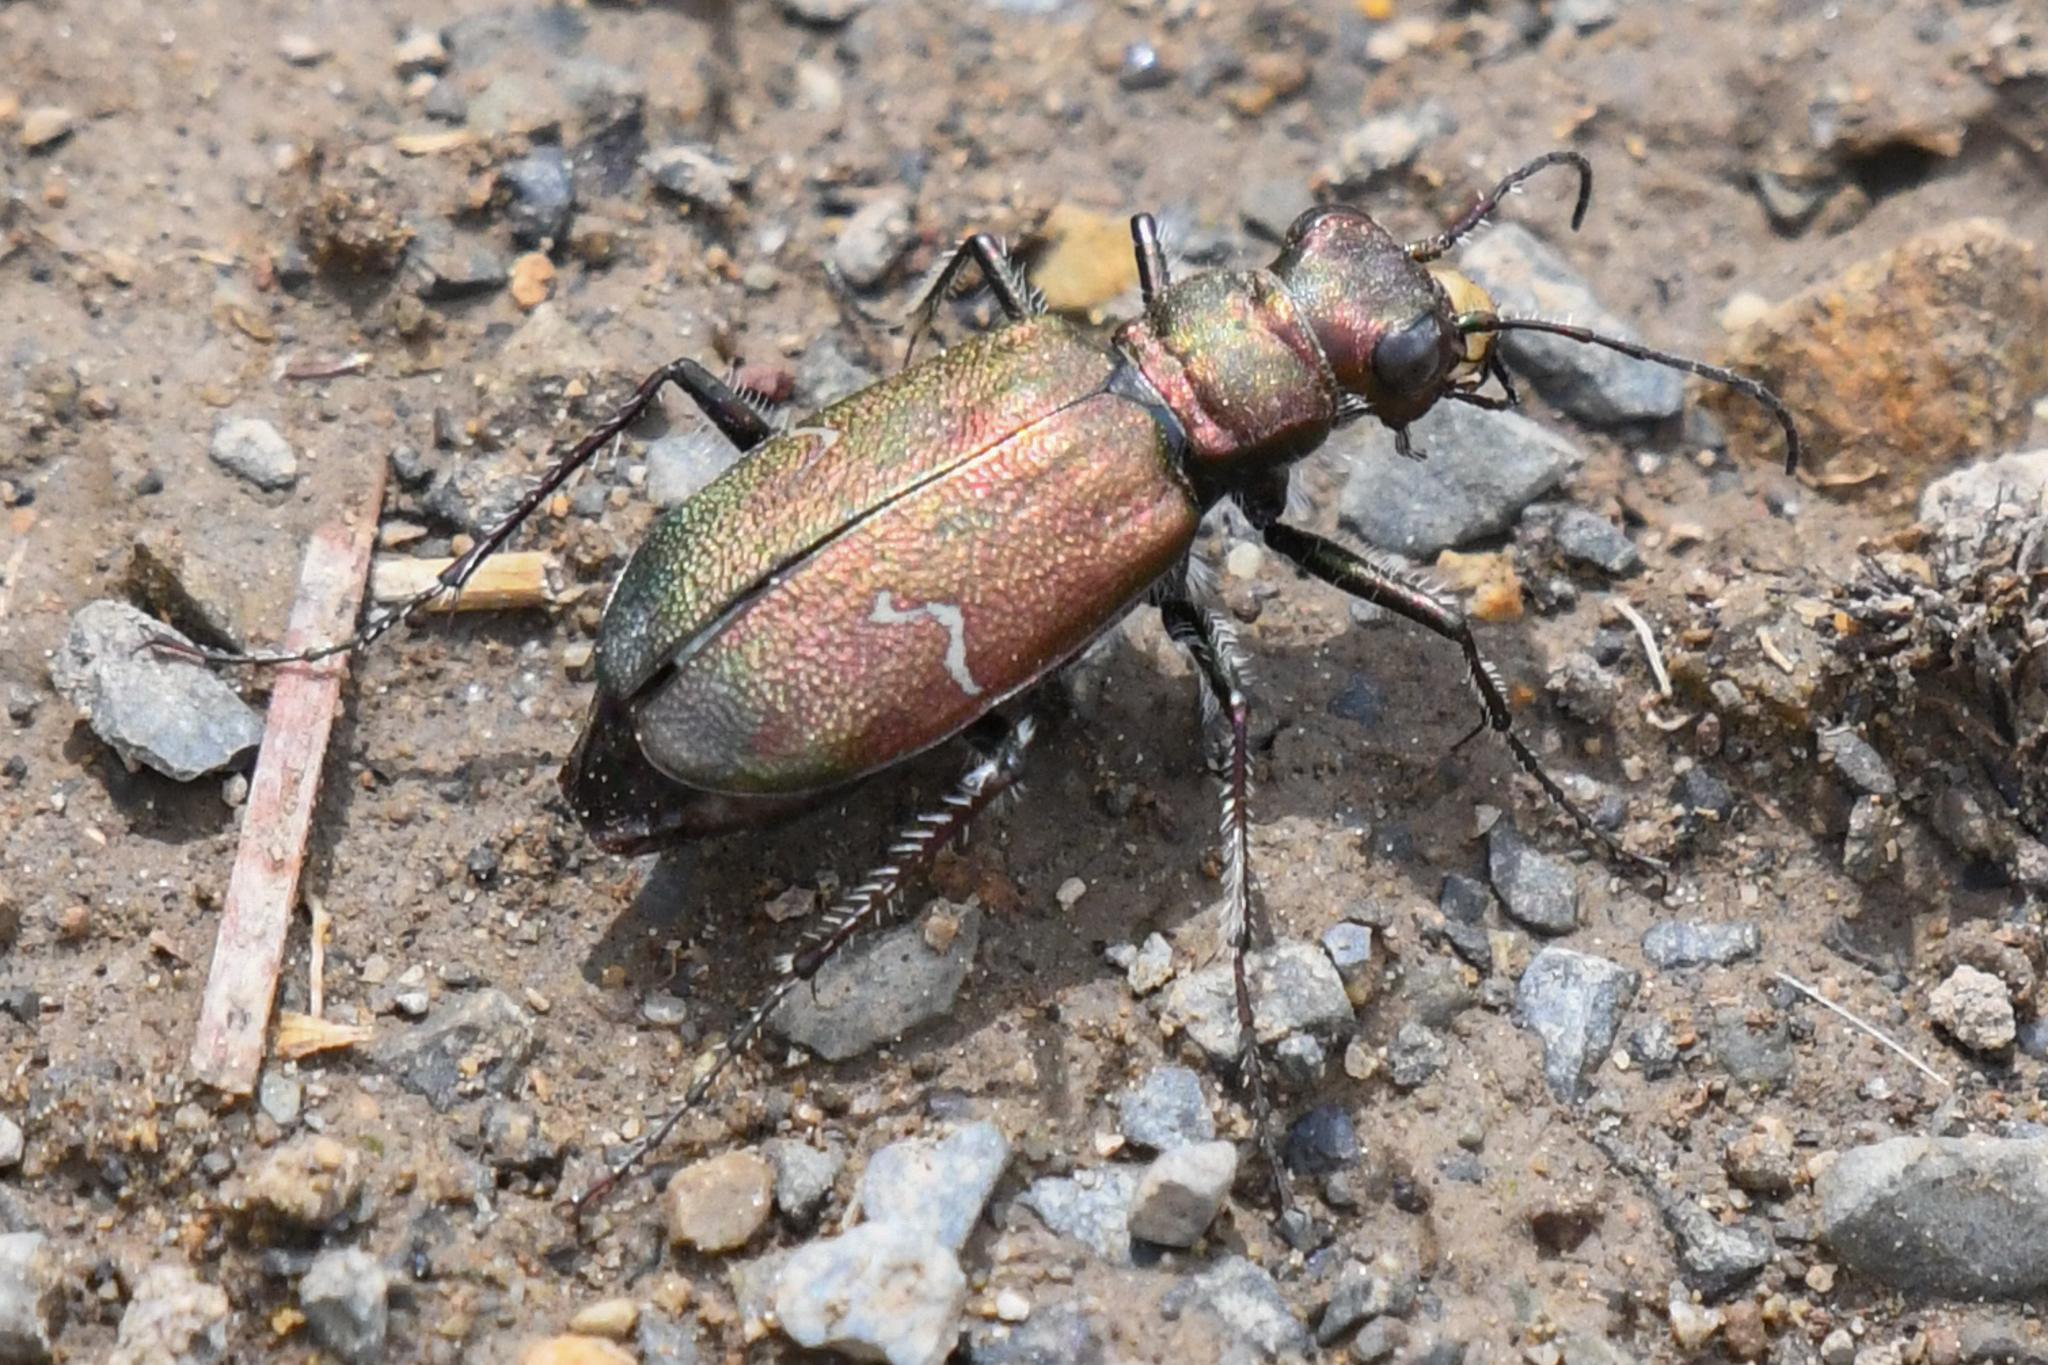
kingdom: Animalia
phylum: Arthropoda
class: Insecta
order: Coleoptera
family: Carabidae
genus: Cicindela
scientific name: Cicindela longilabris
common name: Boreal long-lipped tiger beetle
